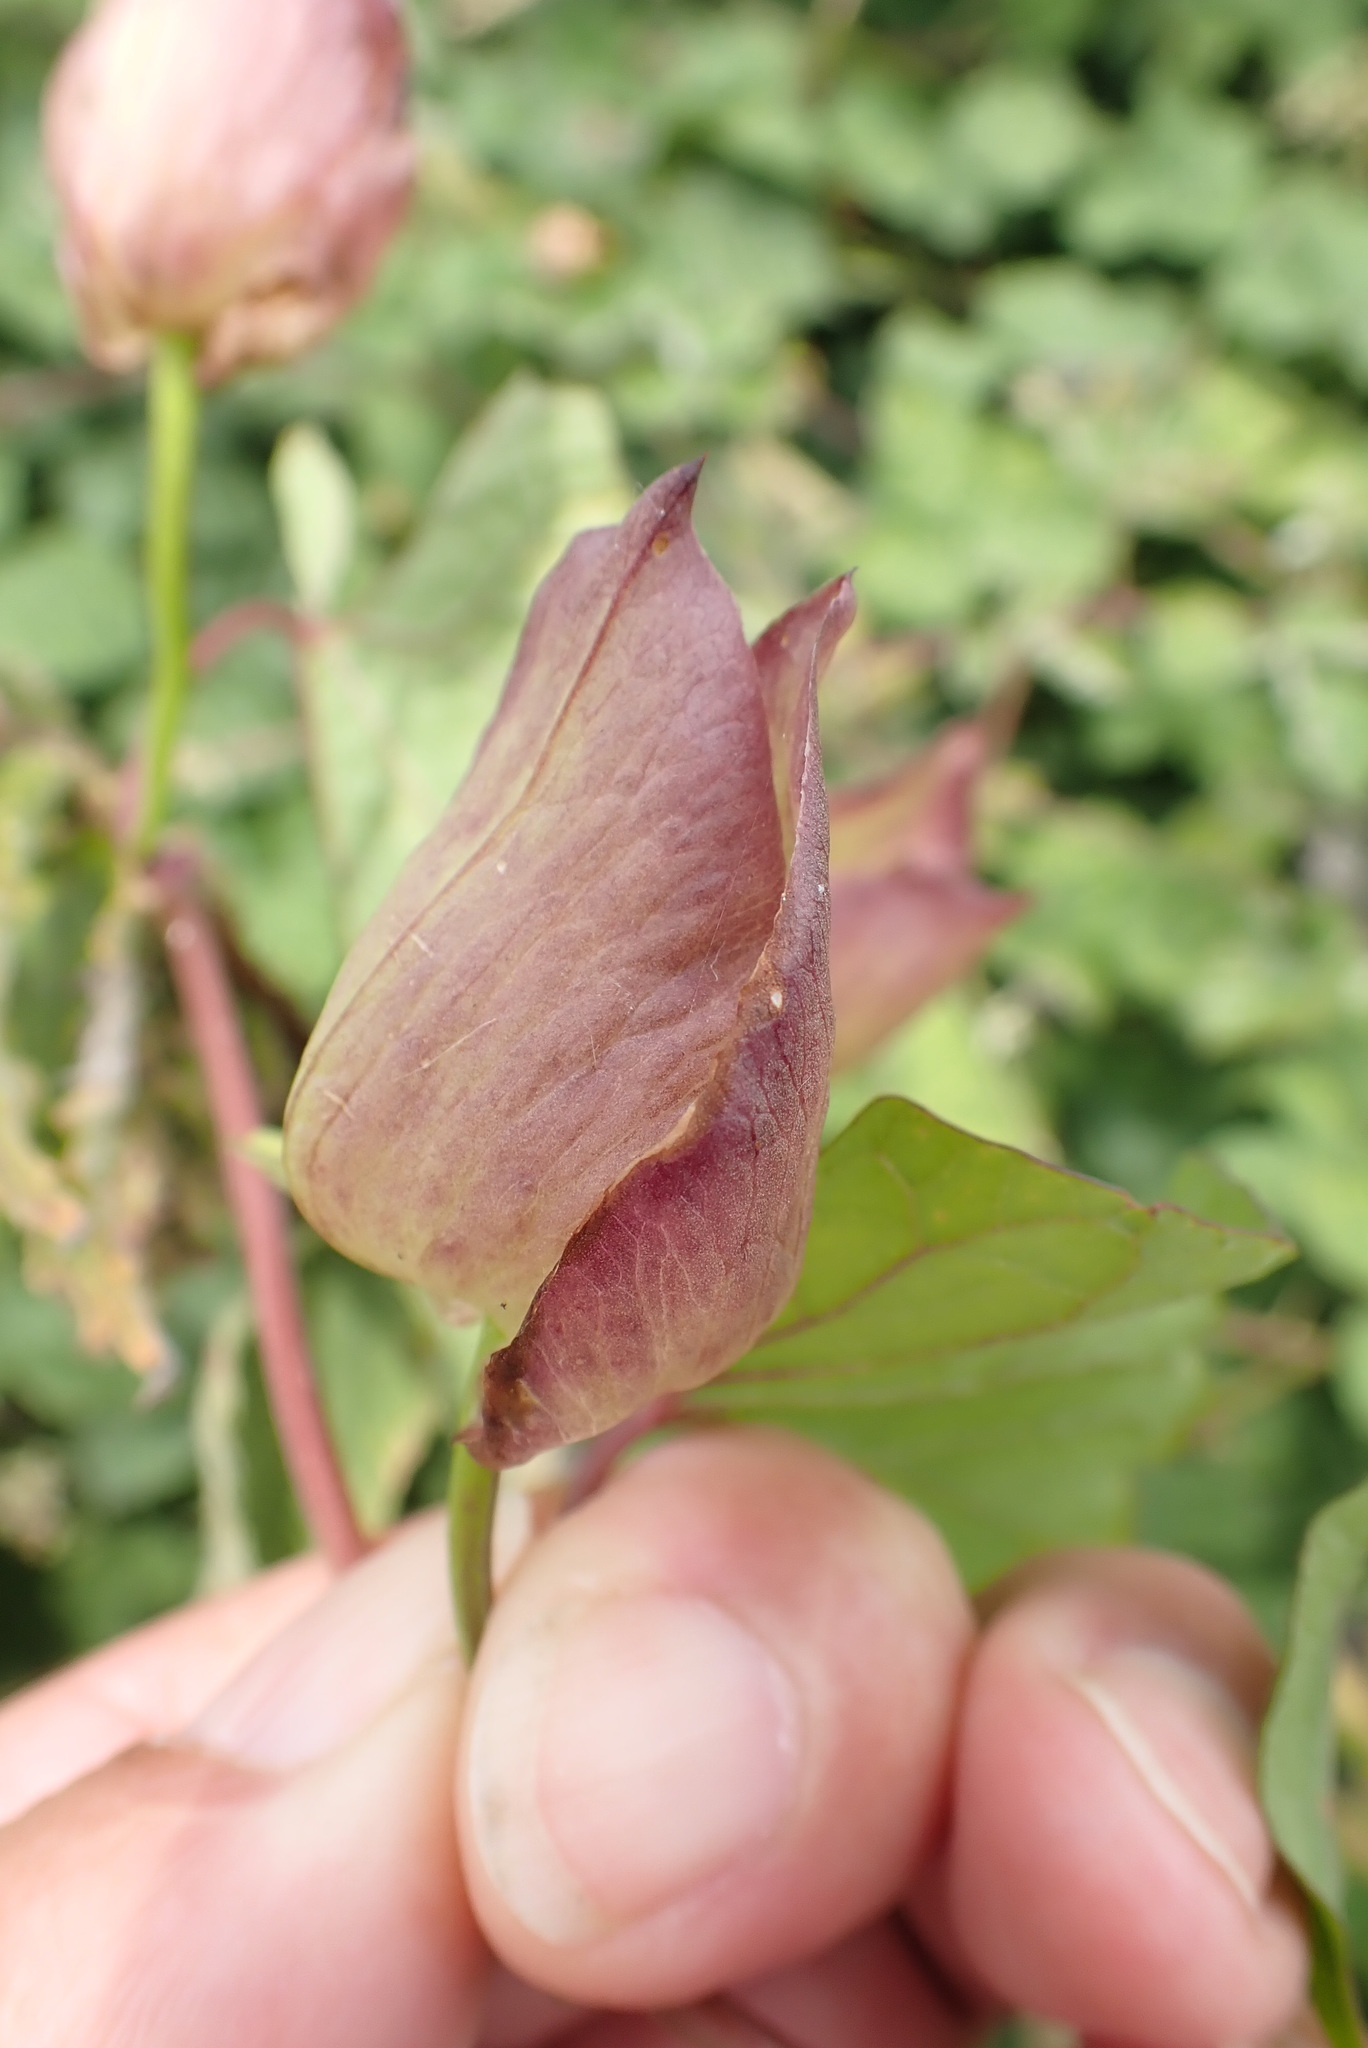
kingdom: Plantae
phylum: Tracheophyta
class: Magnoliopsida
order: Solanales
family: Convolvulaceae
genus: Calystegia
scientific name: Calystegia silvatica
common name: Large bindweed
